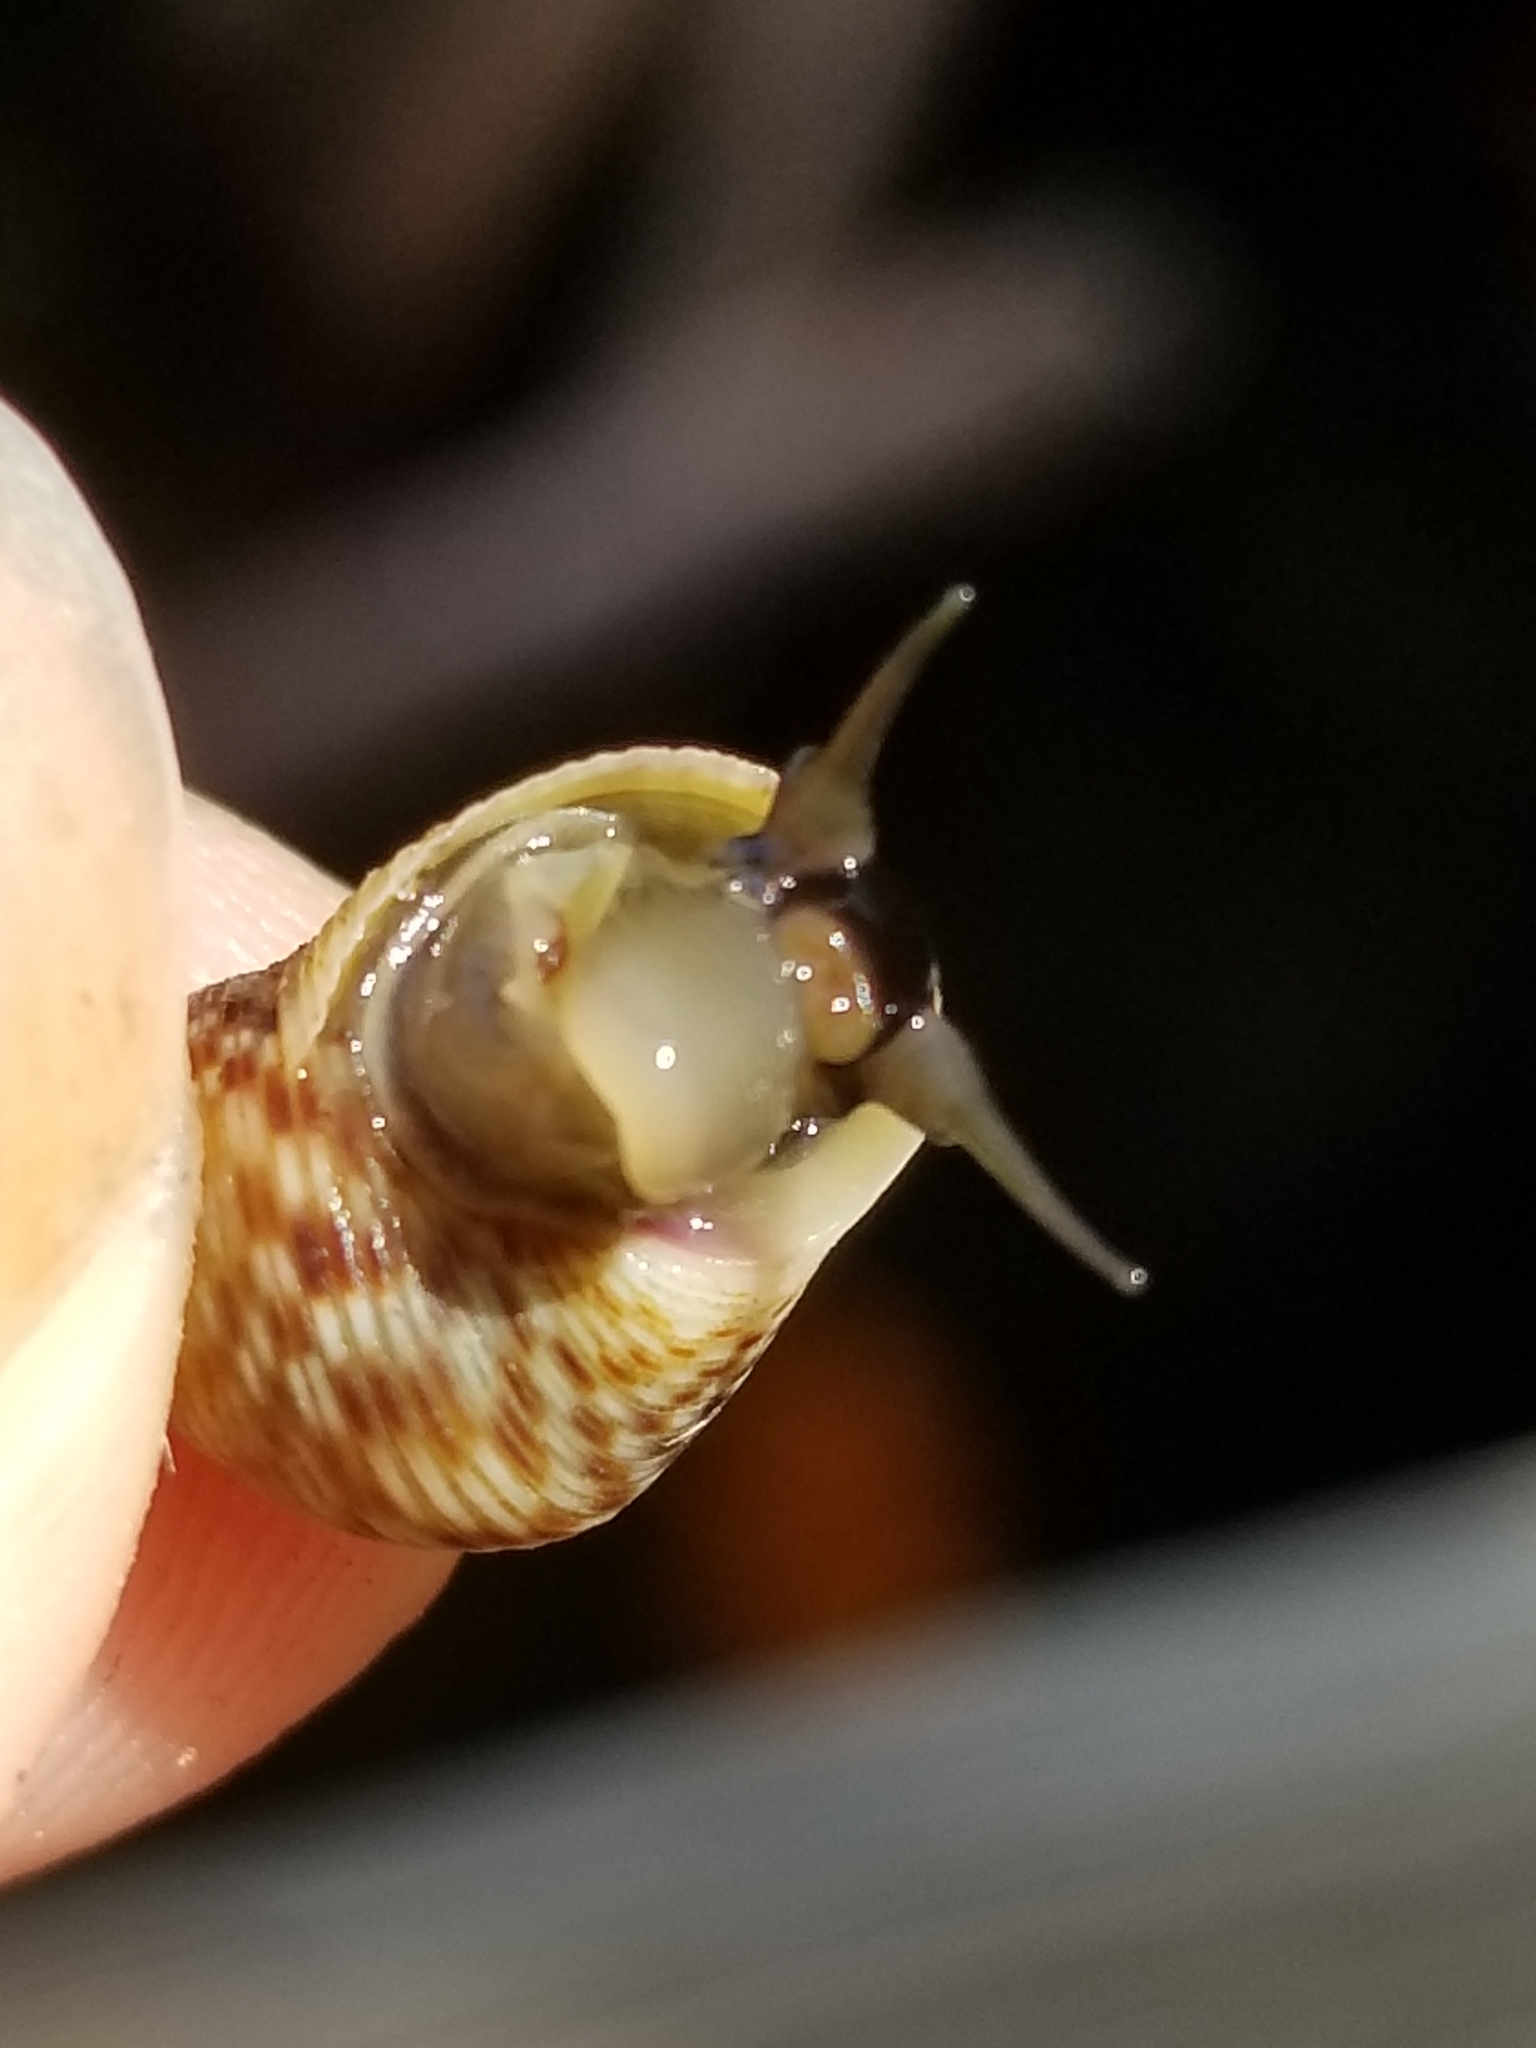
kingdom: Animalia
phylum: Mollusca
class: Gastropoda
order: Littorinimorpha
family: Littorinidae
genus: Littoraria
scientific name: Littoraria nebulosa
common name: Cloudy periwinkle
